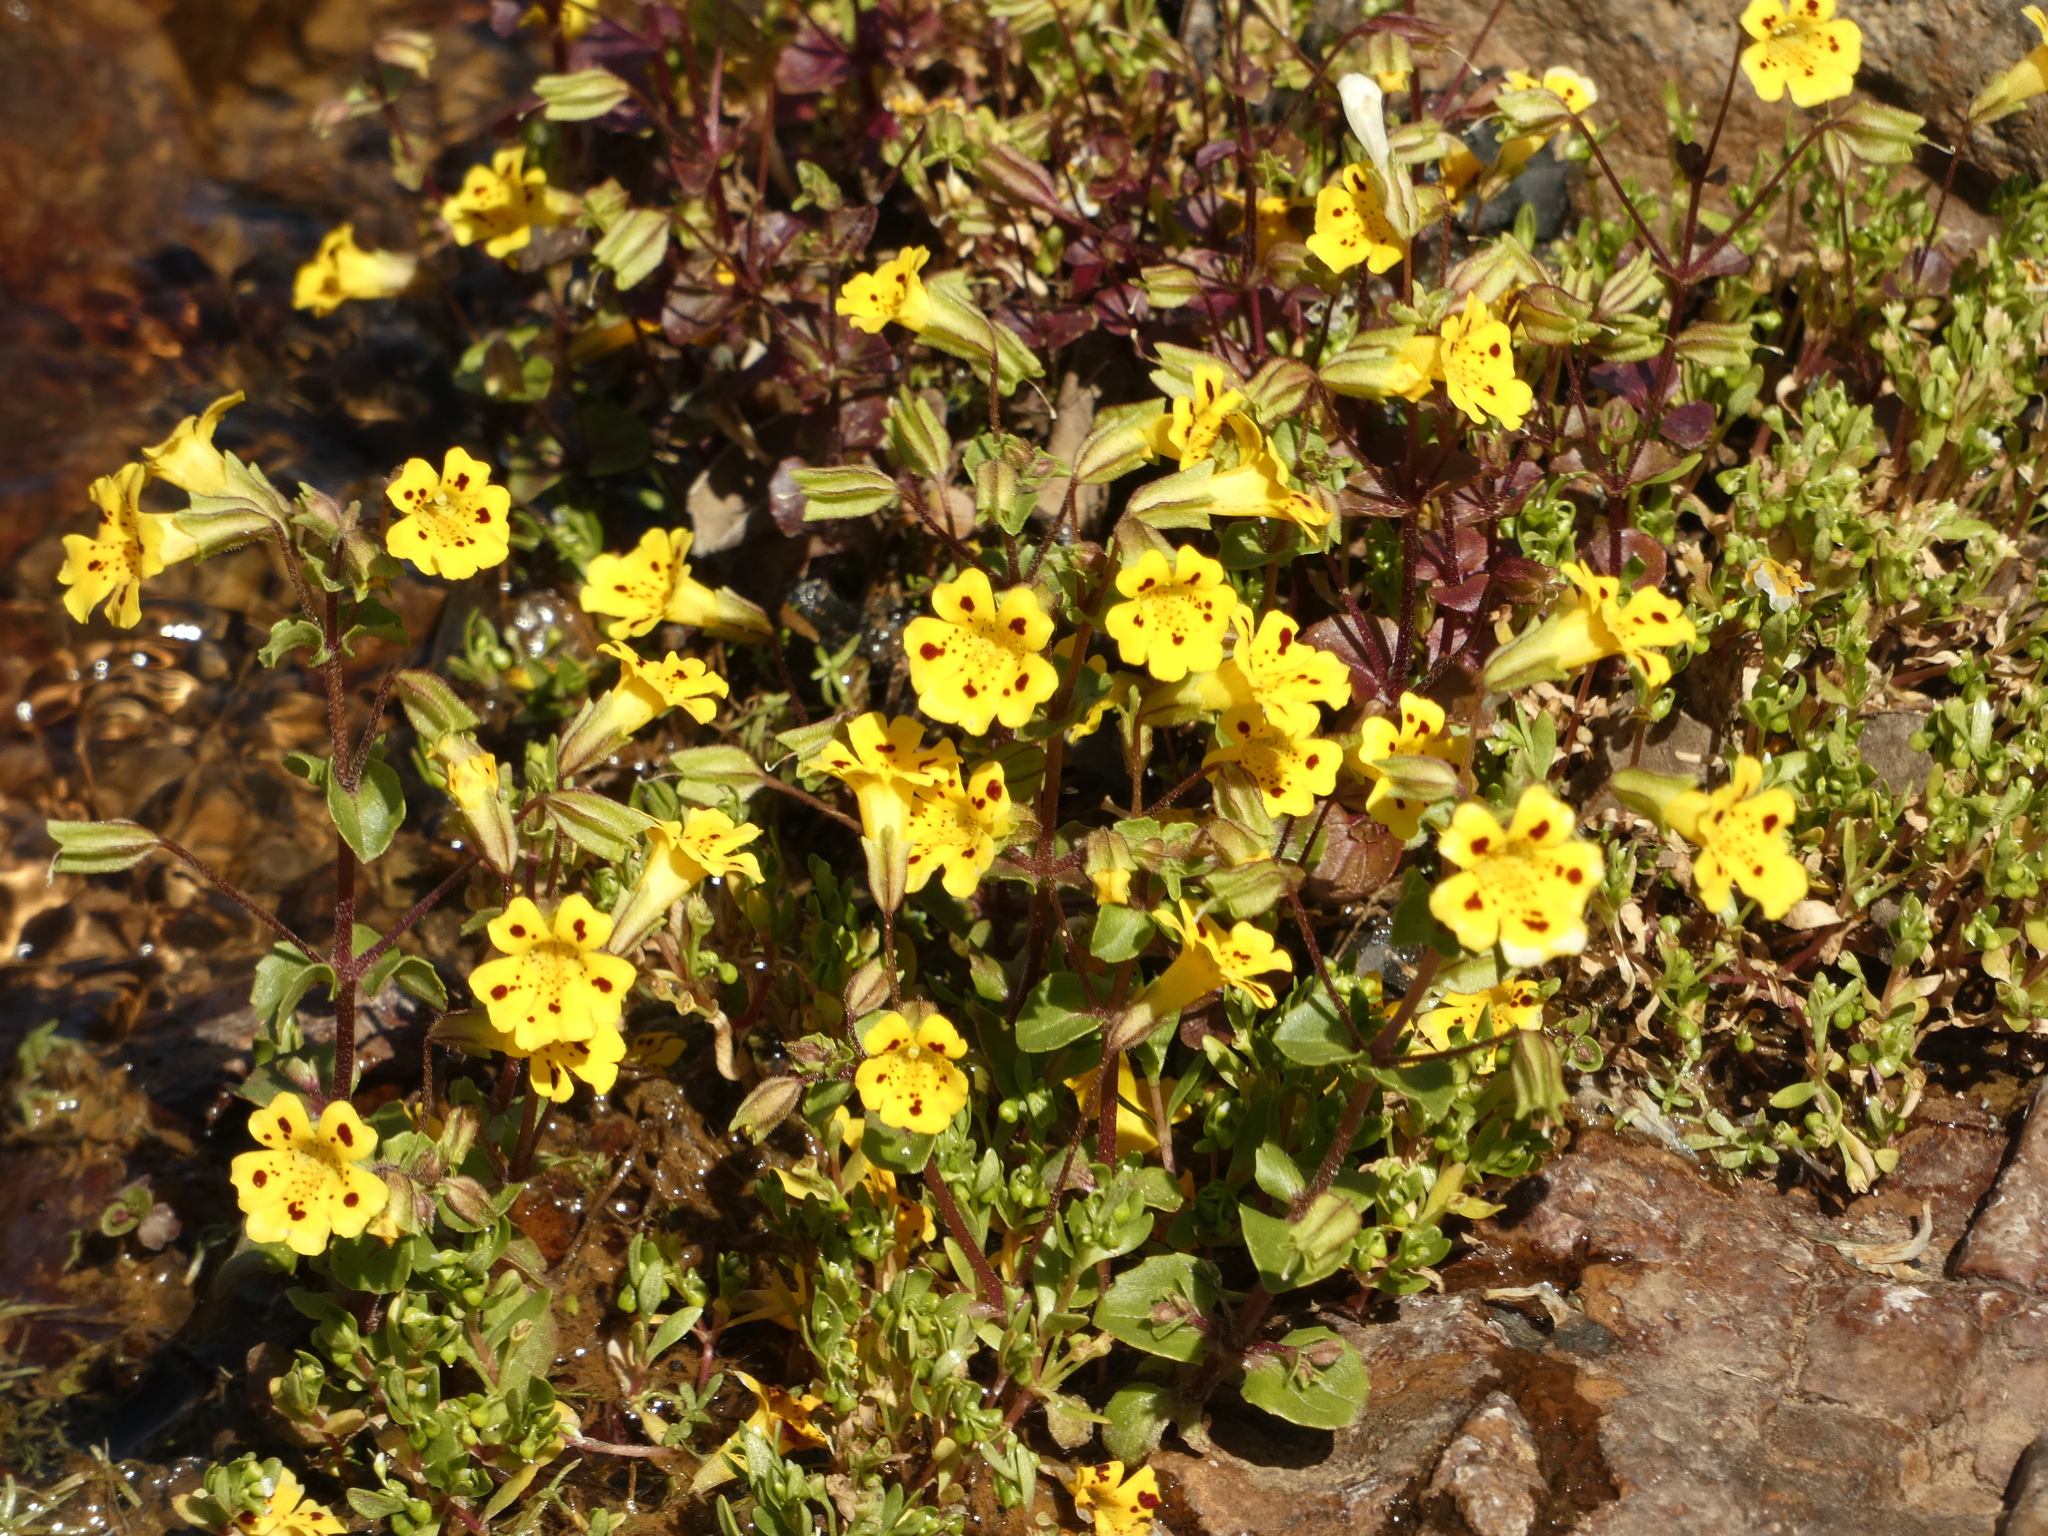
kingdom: Plantae
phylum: Tracheophyta
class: Magnoliopsida
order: Lamiales
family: Phrymaceae
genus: Erythranthe
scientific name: Erythranthe bridgesii
